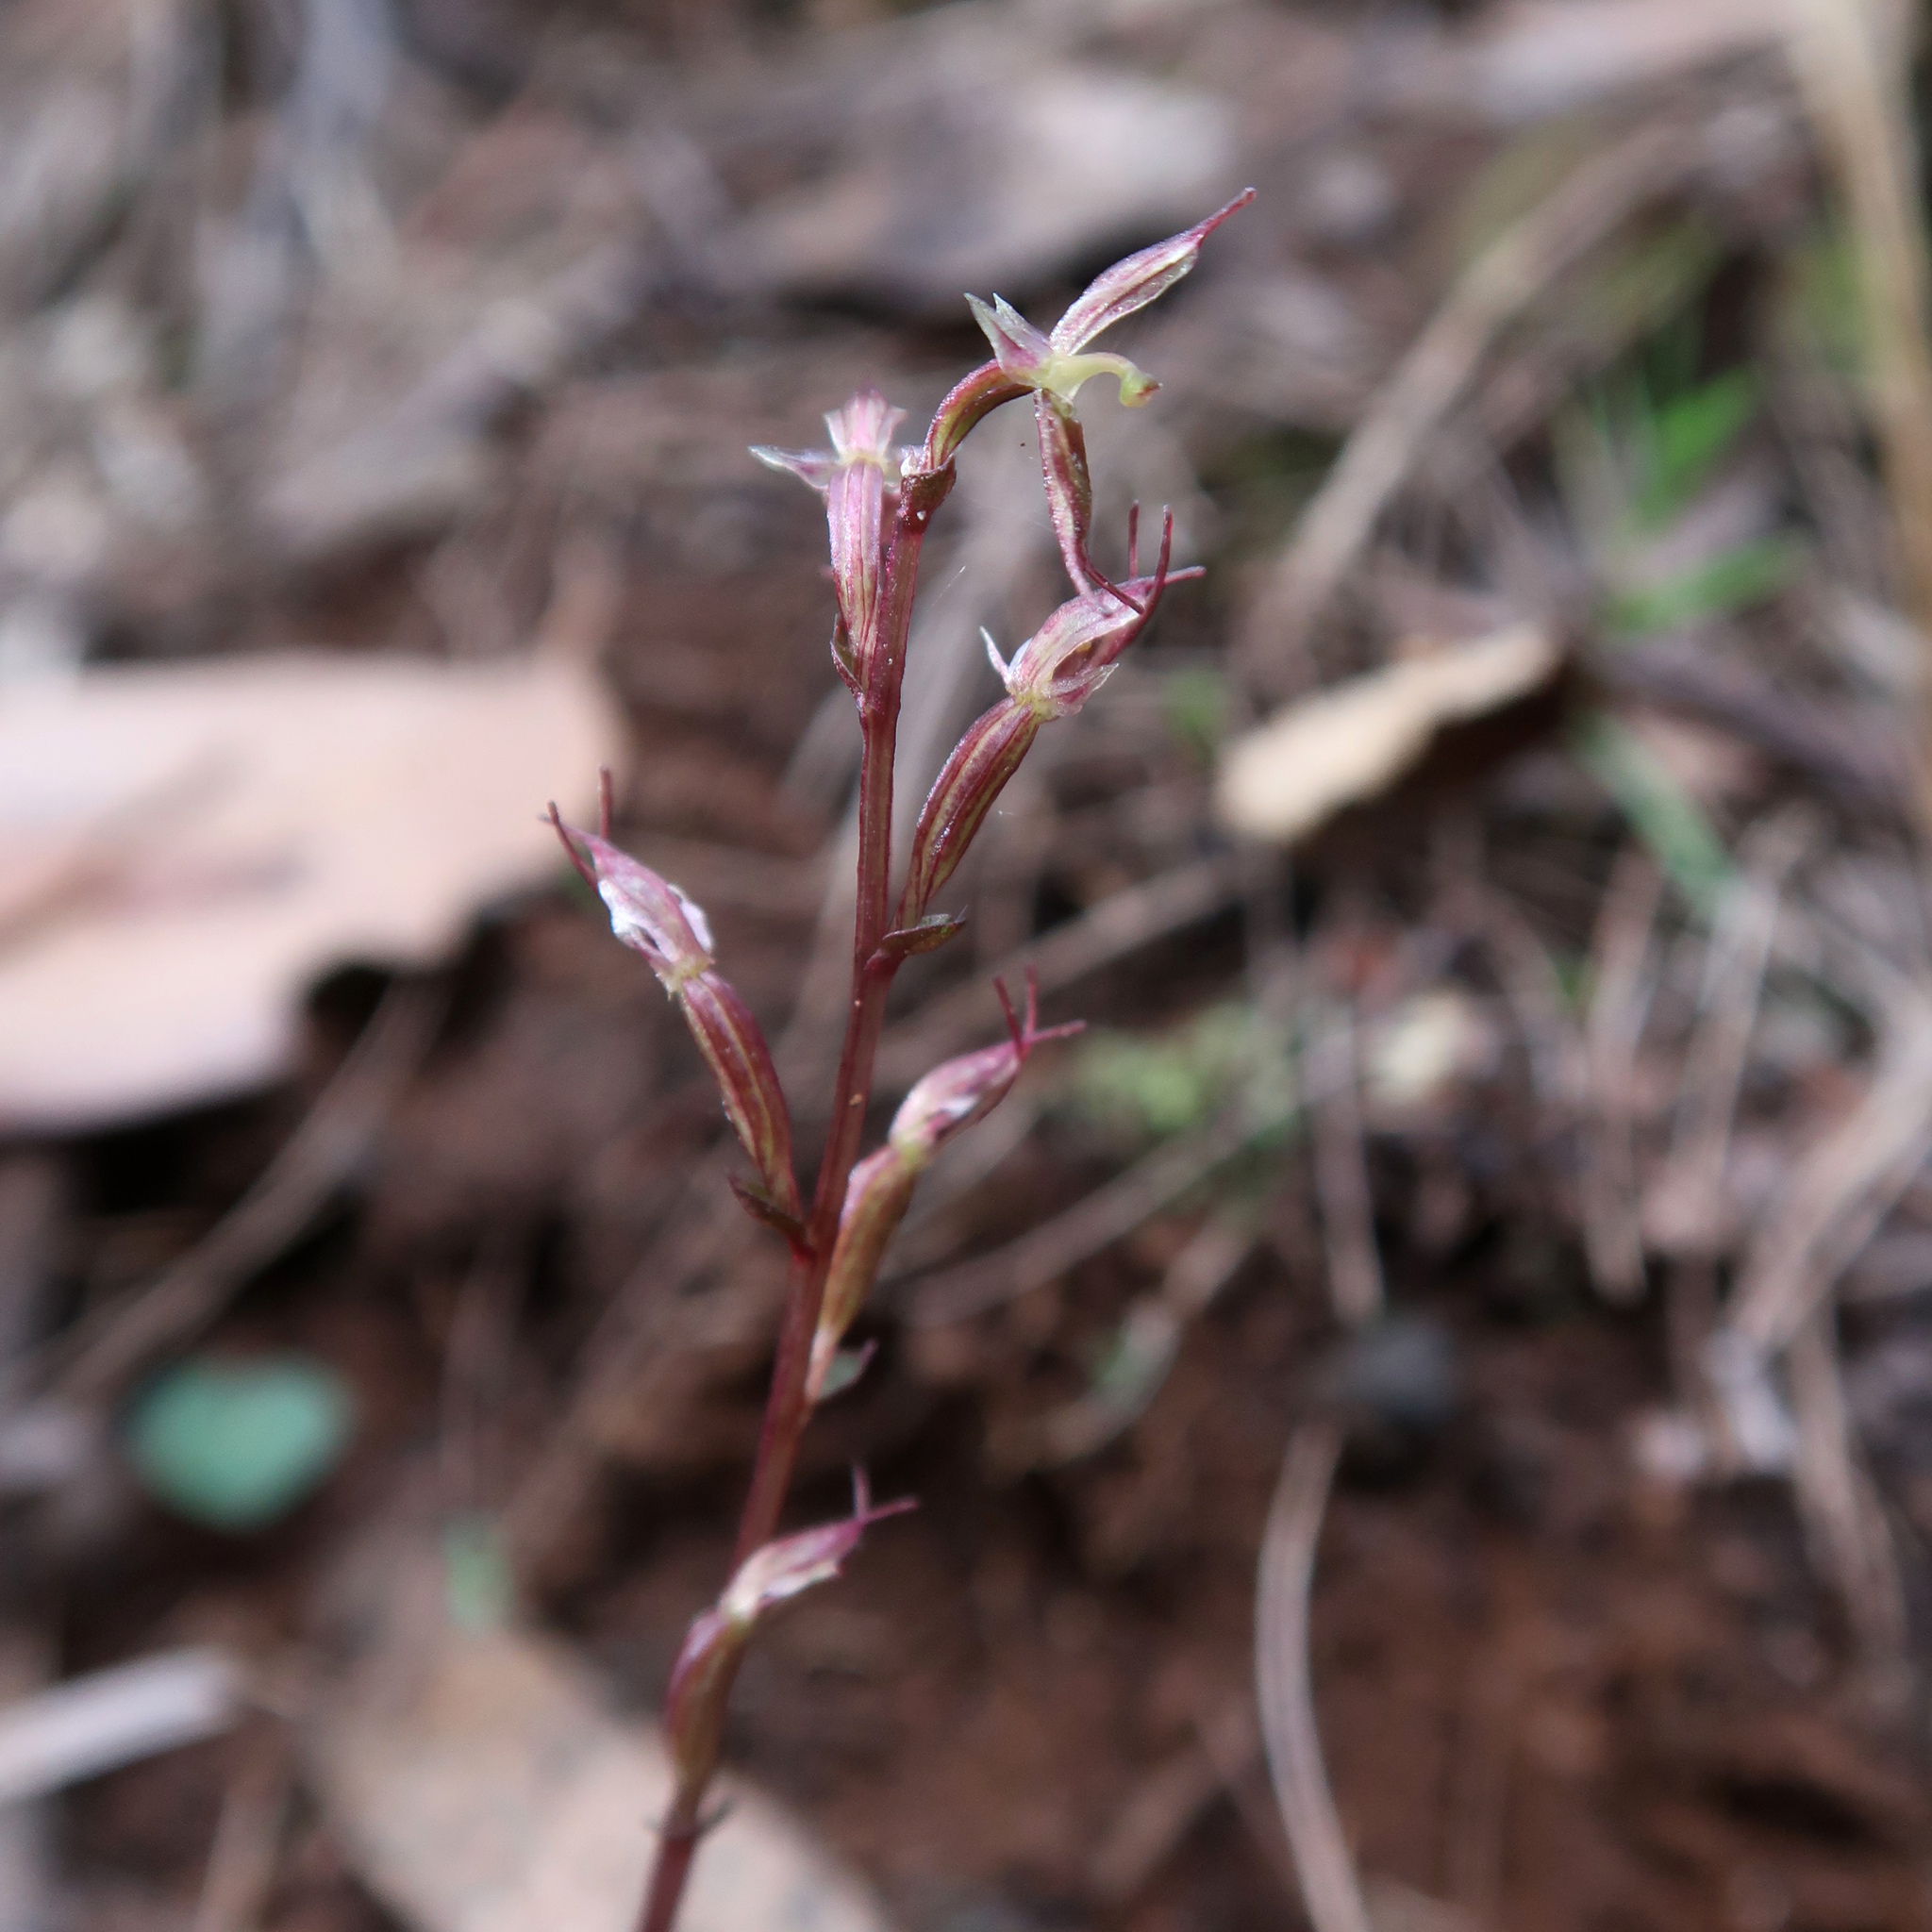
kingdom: Plantae
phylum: Tracheophyta
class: Liliopsida
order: Asparagales
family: Orchidaceae
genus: Acianthus
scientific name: Acianthus pusillus
